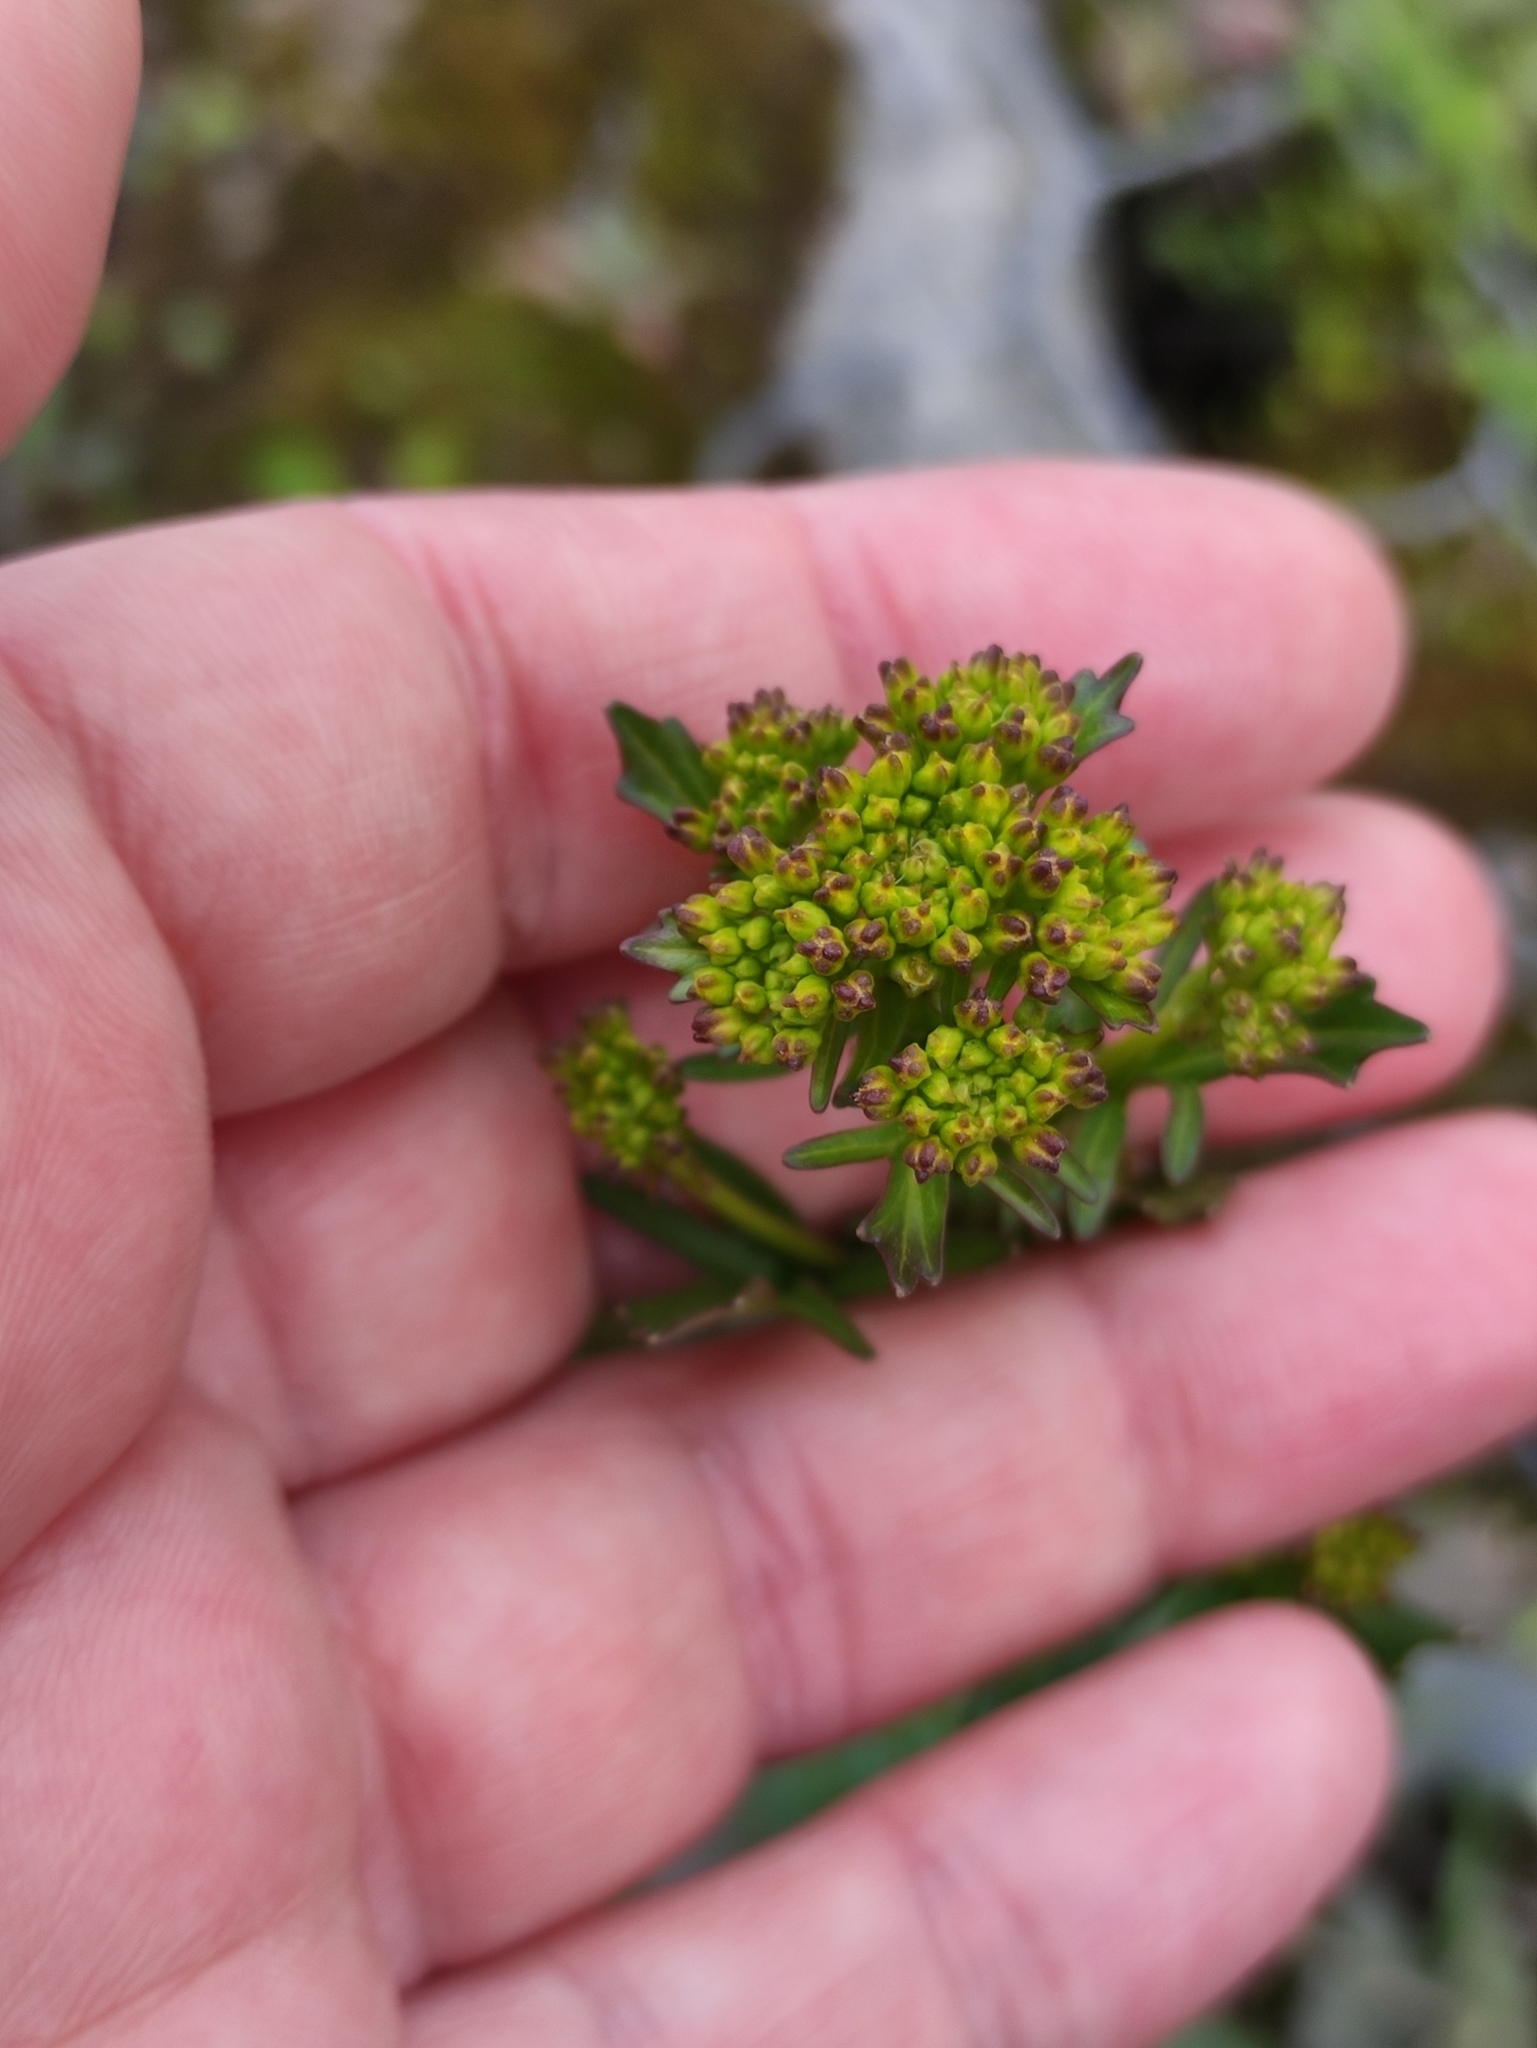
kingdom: Plantae
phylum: Tracheophyta
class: Magnoliopsida
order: Brassicales
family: Brassicaceae
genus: Barbarea
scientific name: Barbarea vulgaris
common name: Cressy-greens
